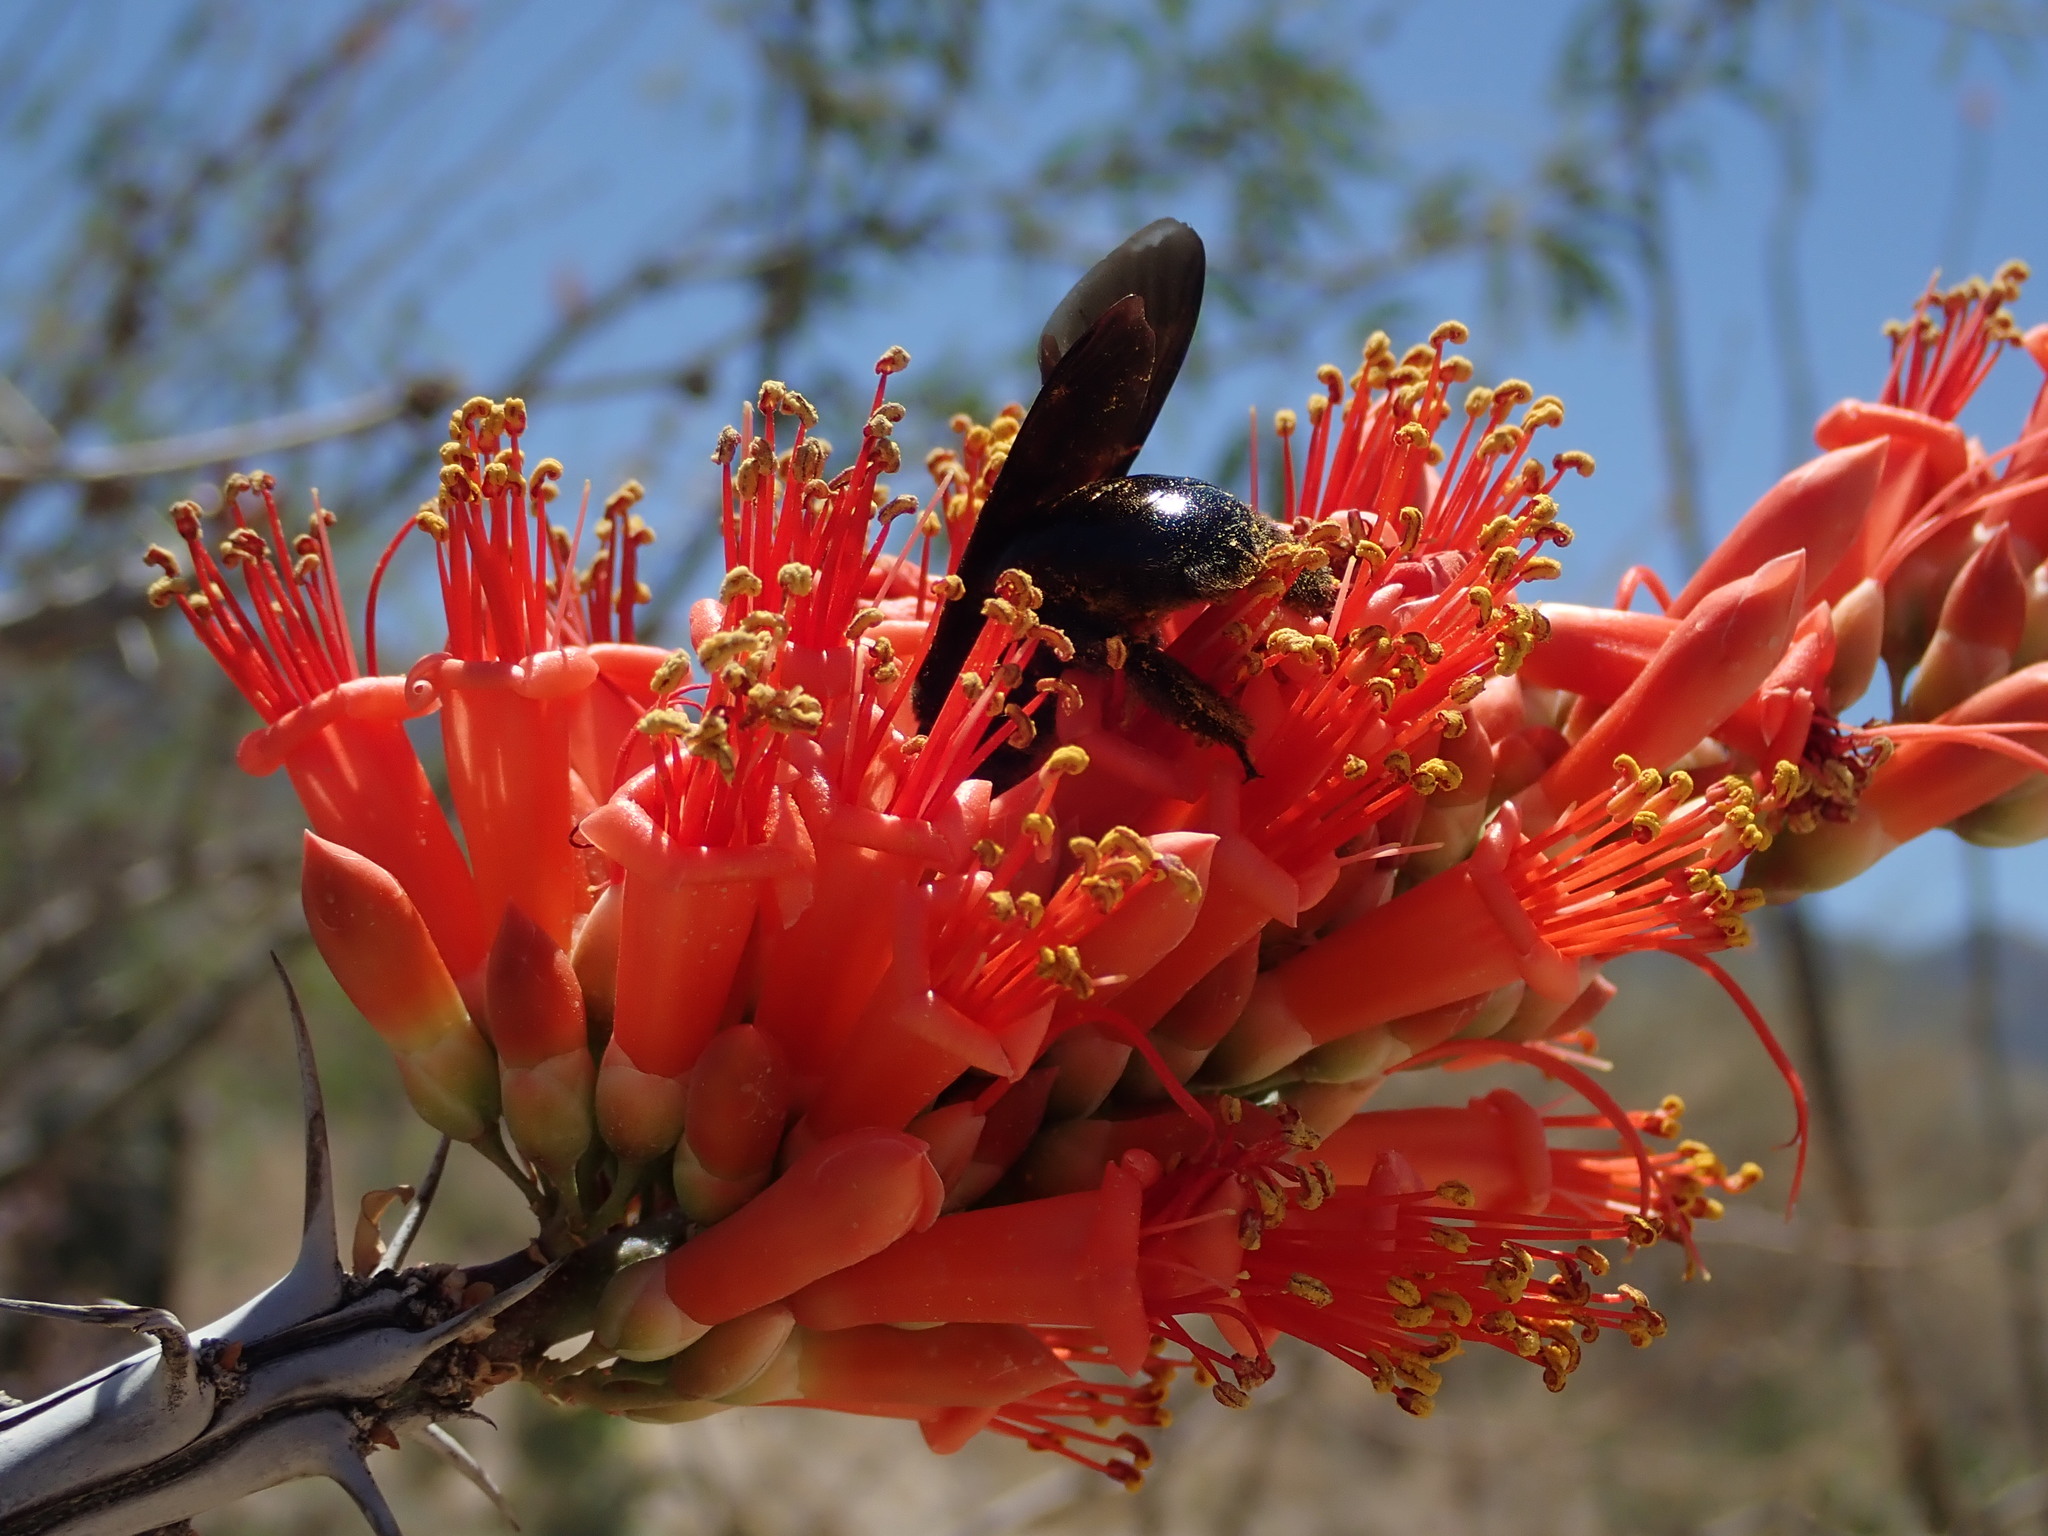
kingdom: Animalia
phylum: Arthropoda
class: Insecta
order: Hymenoptera
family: Apidae
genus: Xylocopa
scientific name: Xylocopa californica
